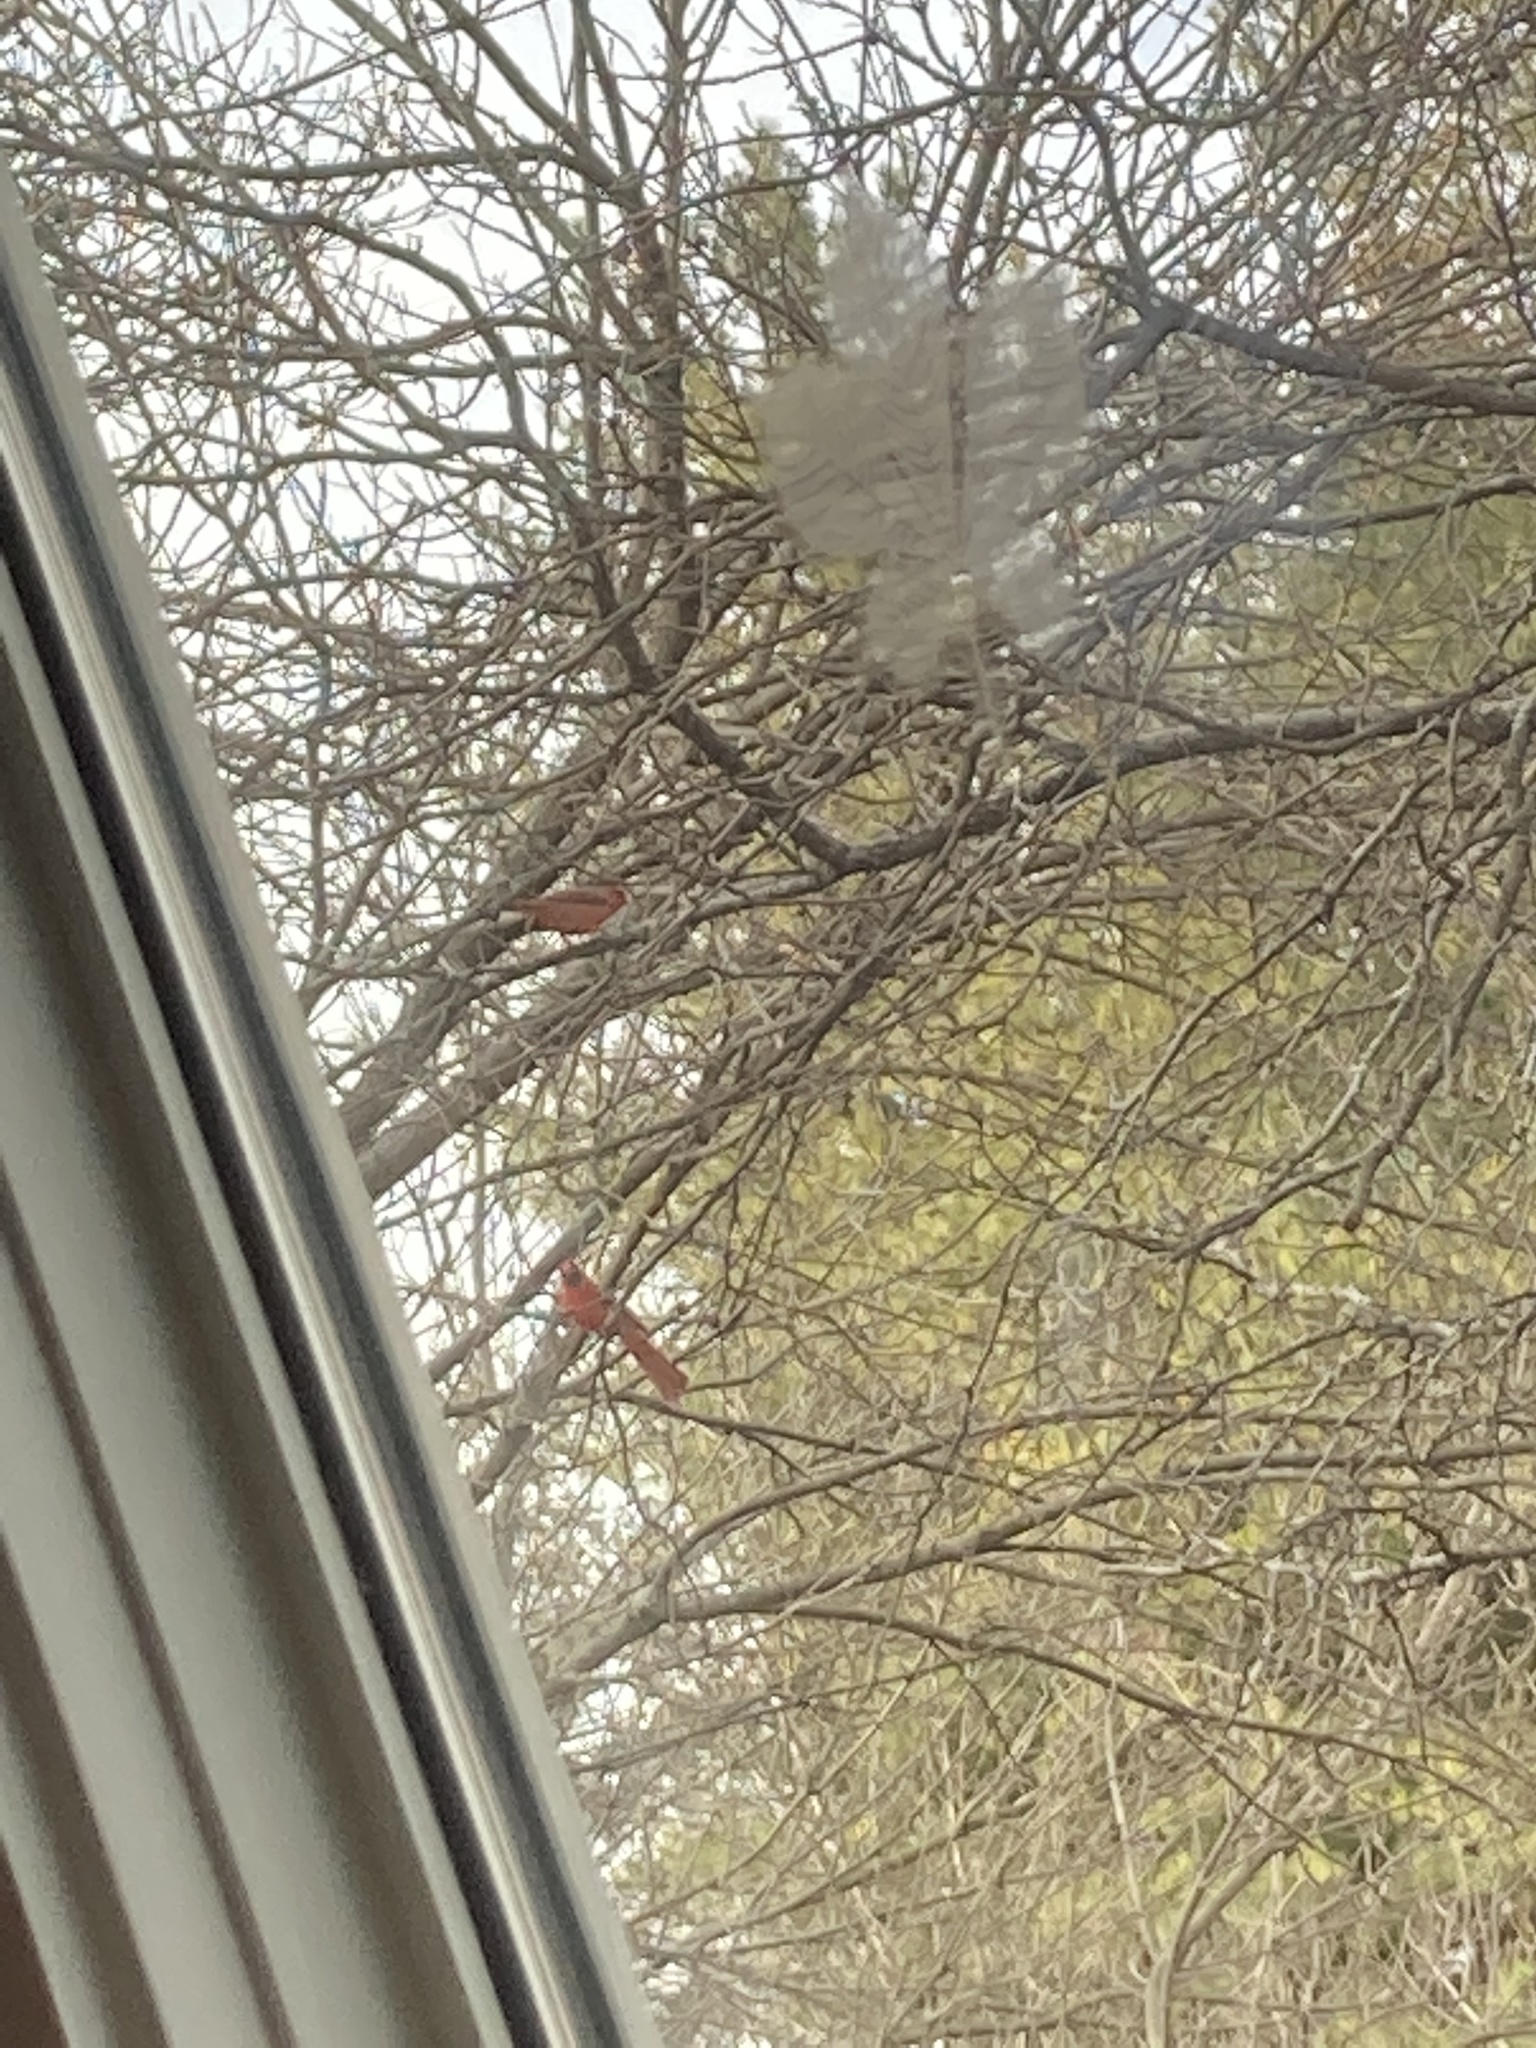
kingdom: Animalia
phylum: Chordata
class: Aves
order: Passeriformes
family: Cardinalidae
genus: Cardinalis
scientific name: Cardinalis cardinalis
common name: Northern cardinal
